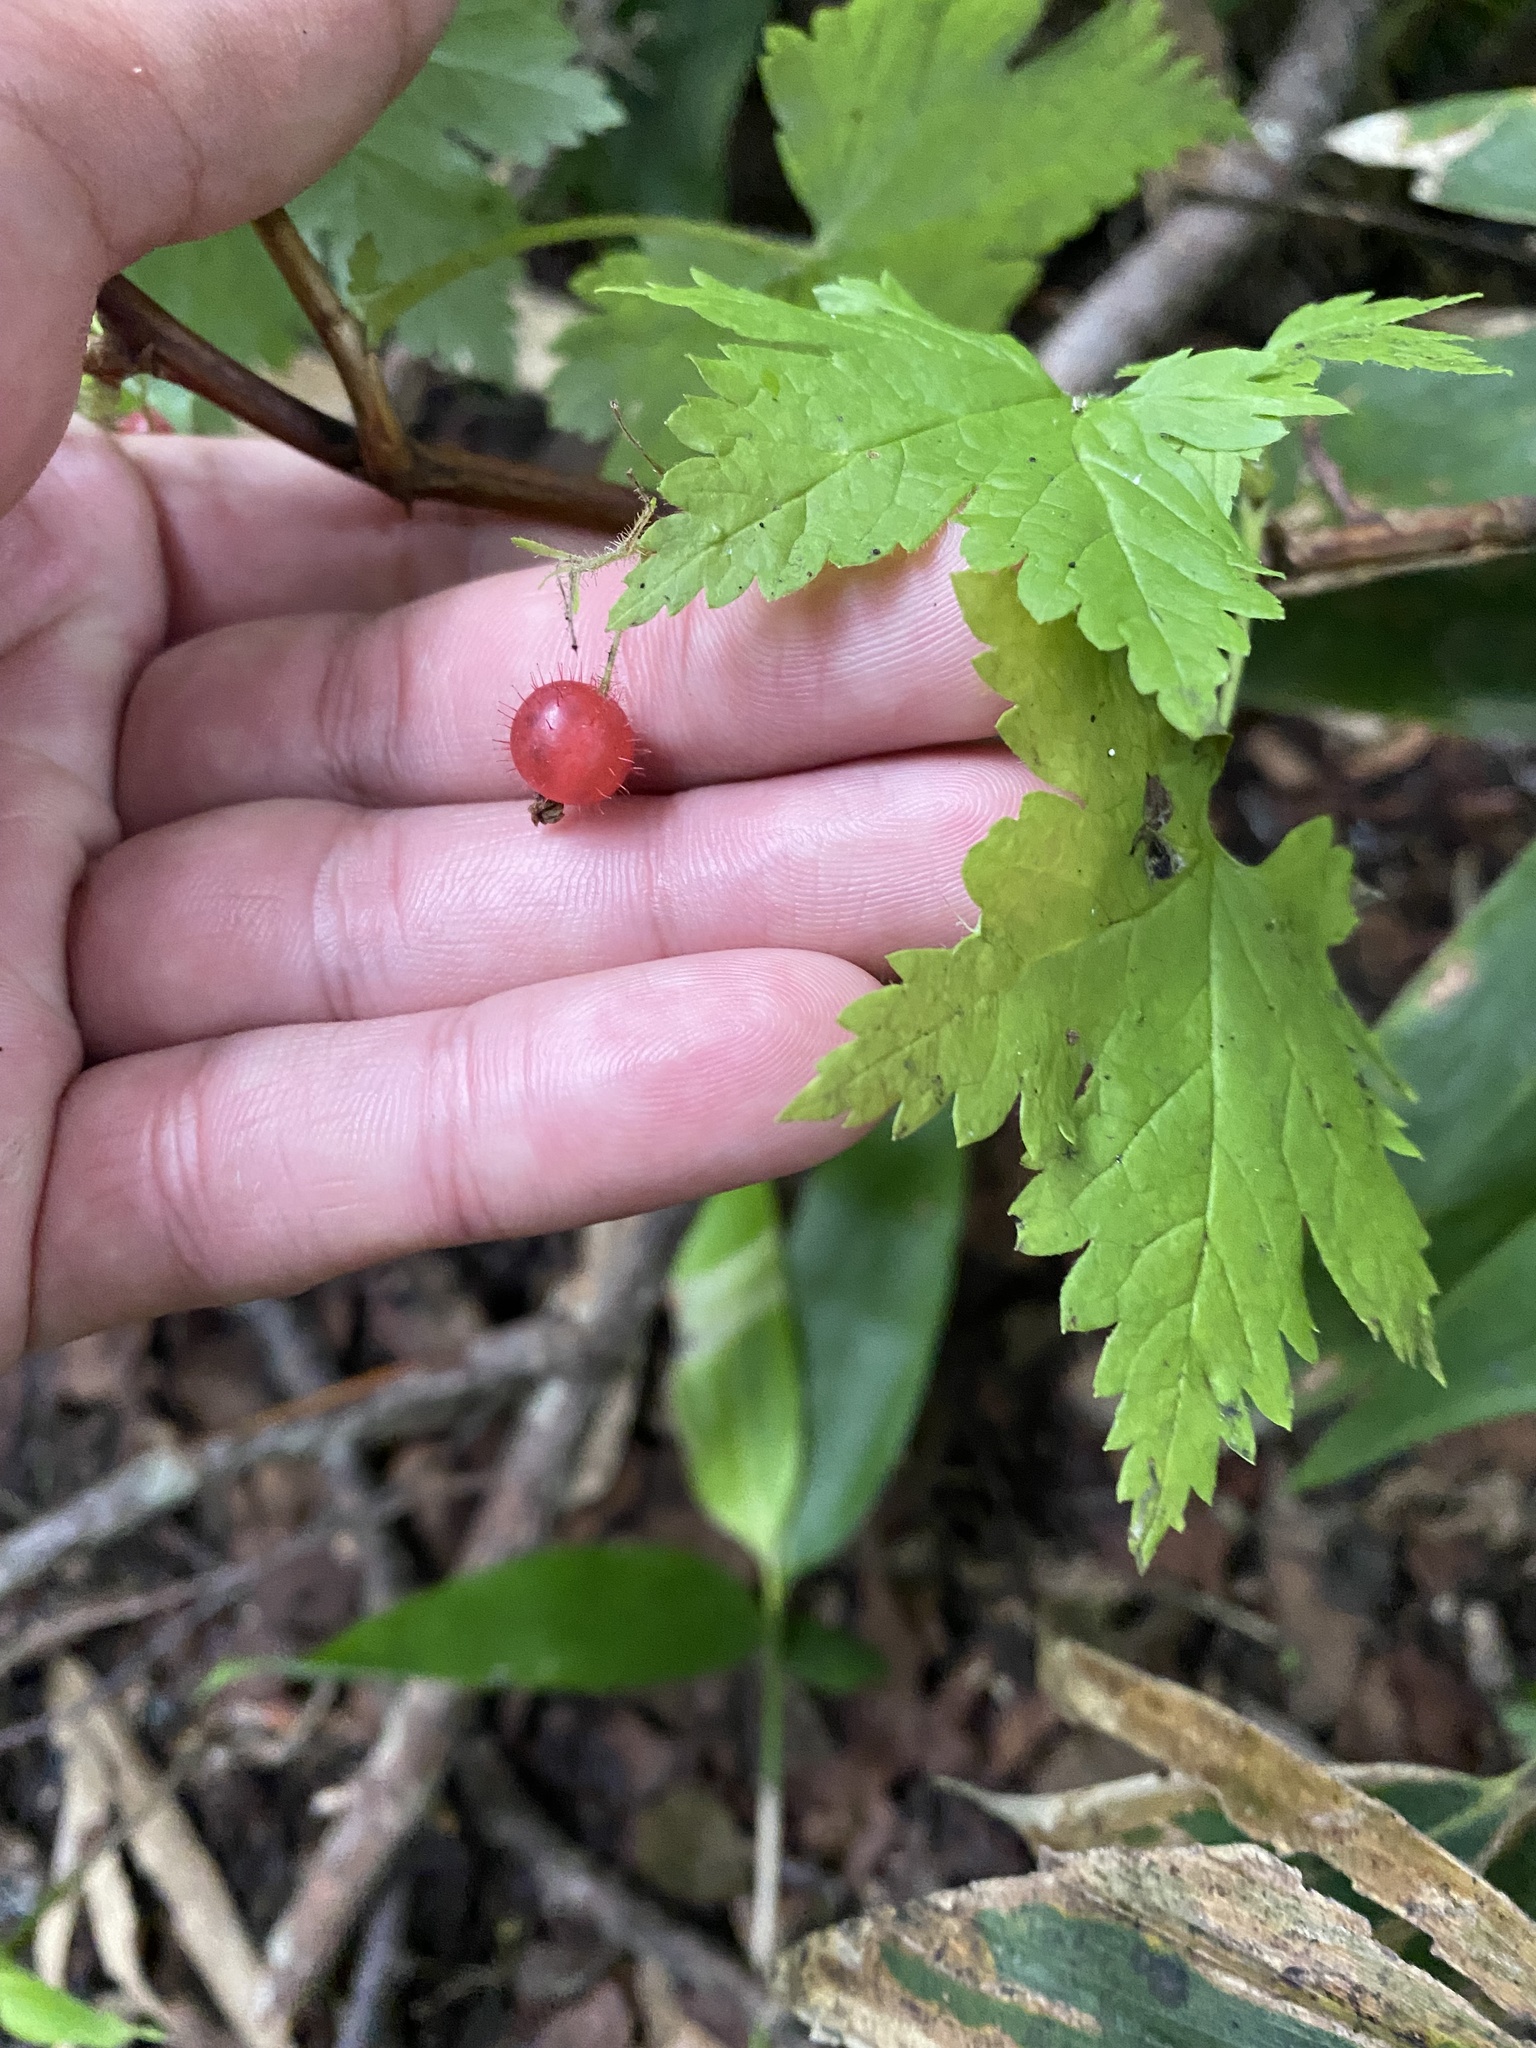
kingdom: Plantae
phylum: Tracheophyta
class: Magnoliopsida
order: Saxifragales
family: Grossulariaceae
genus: Ribes
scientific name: Ribes sachalinense
